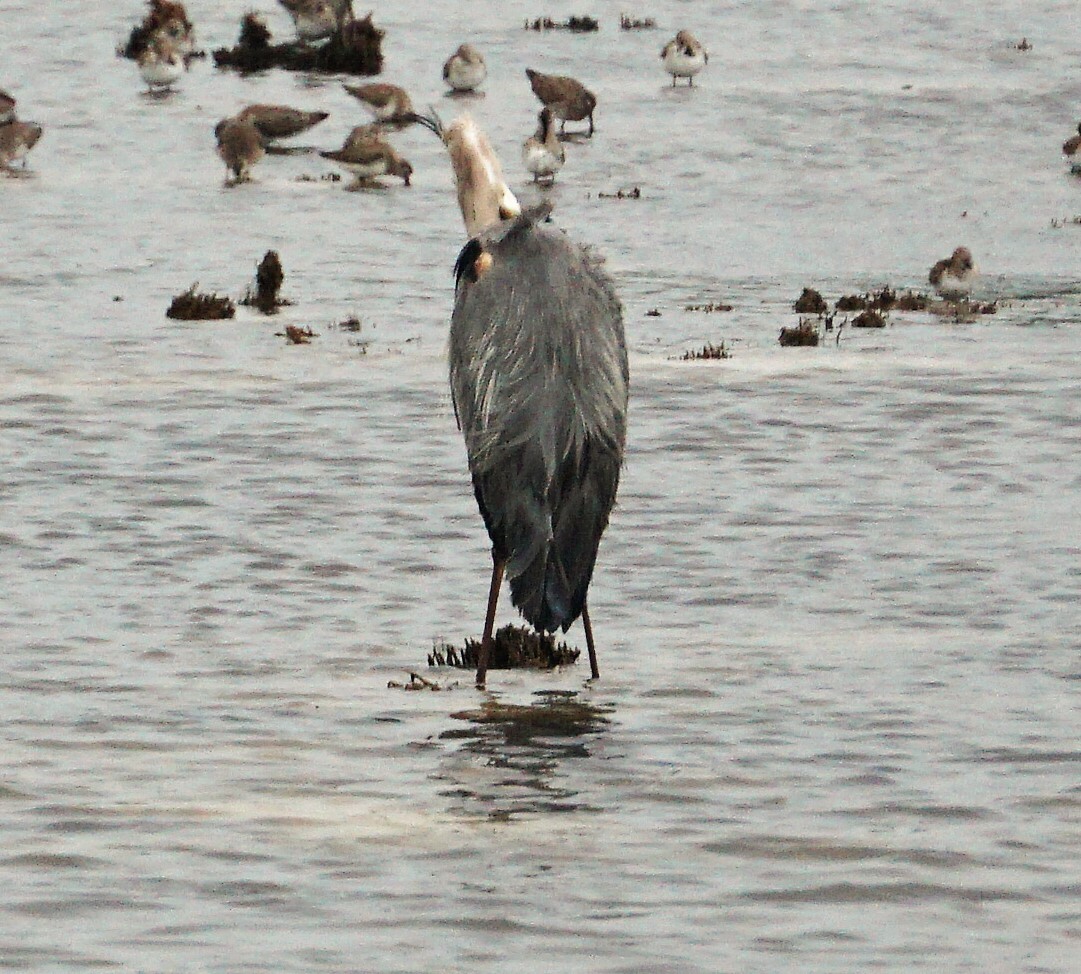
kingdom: Animalia
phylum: Chordata
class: Aves
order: Pelecaniformes
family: Ardeidae
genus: Ardea
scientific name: Ardea herodias
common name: Great blue heron
